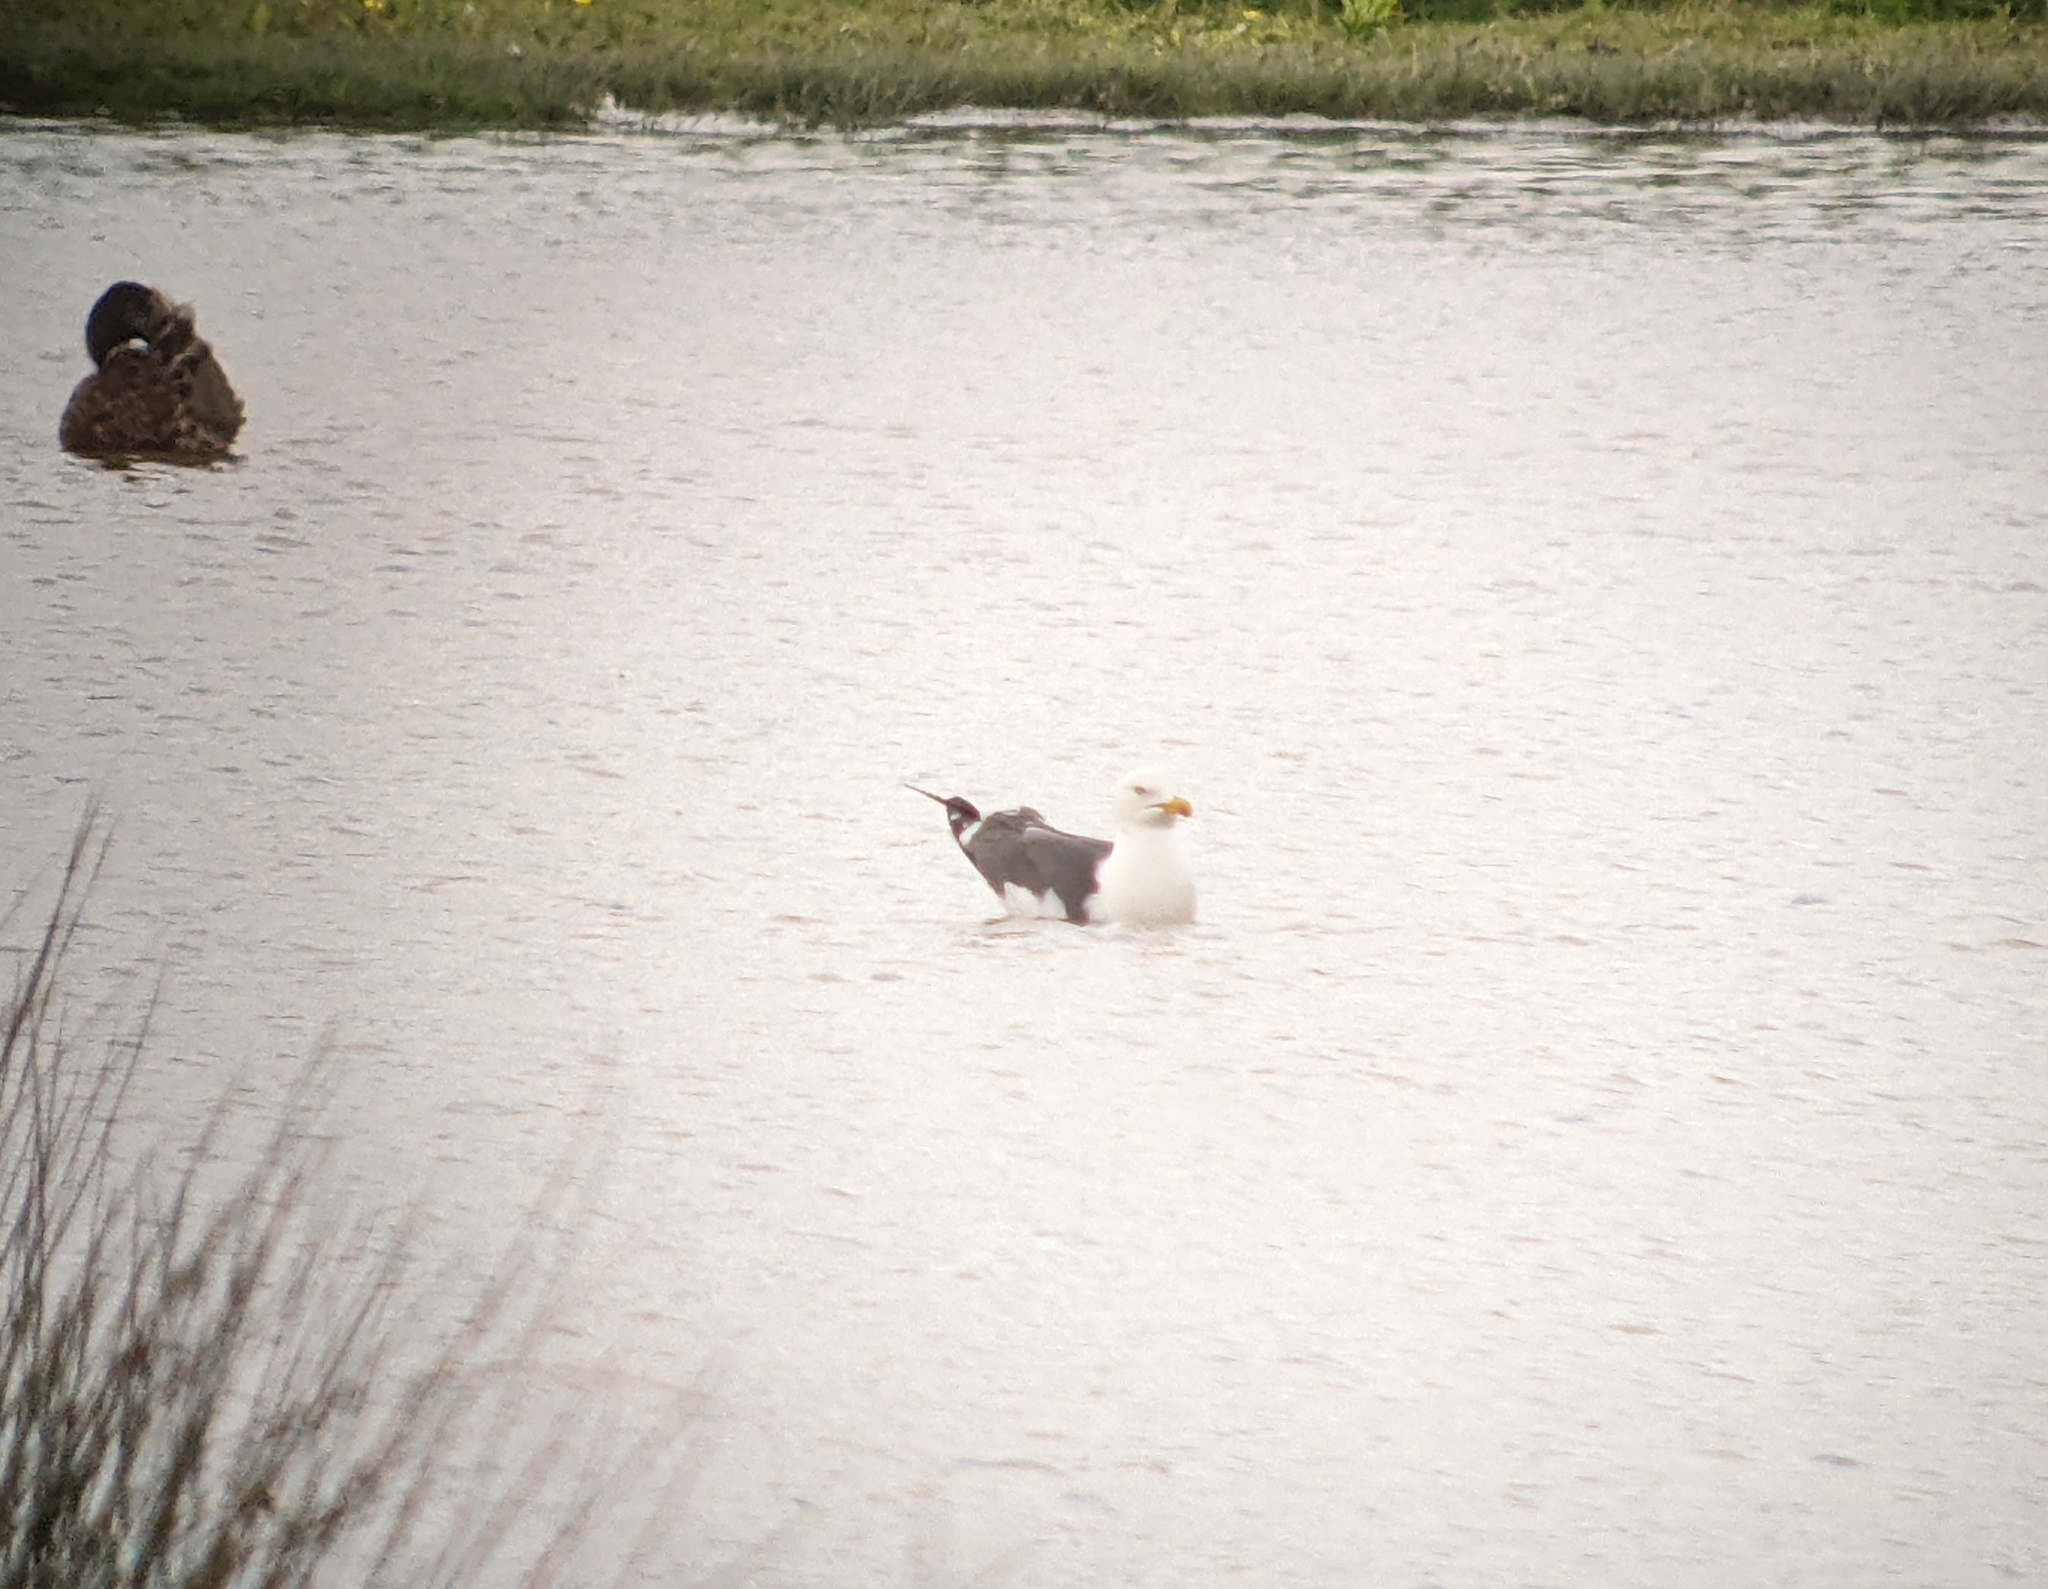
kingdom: Animalia
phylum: Chordata
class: Aves
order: Charadriiformes
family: Laridae
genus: Larus
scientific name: Larus fuscus
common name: Lesser black-backed gull
